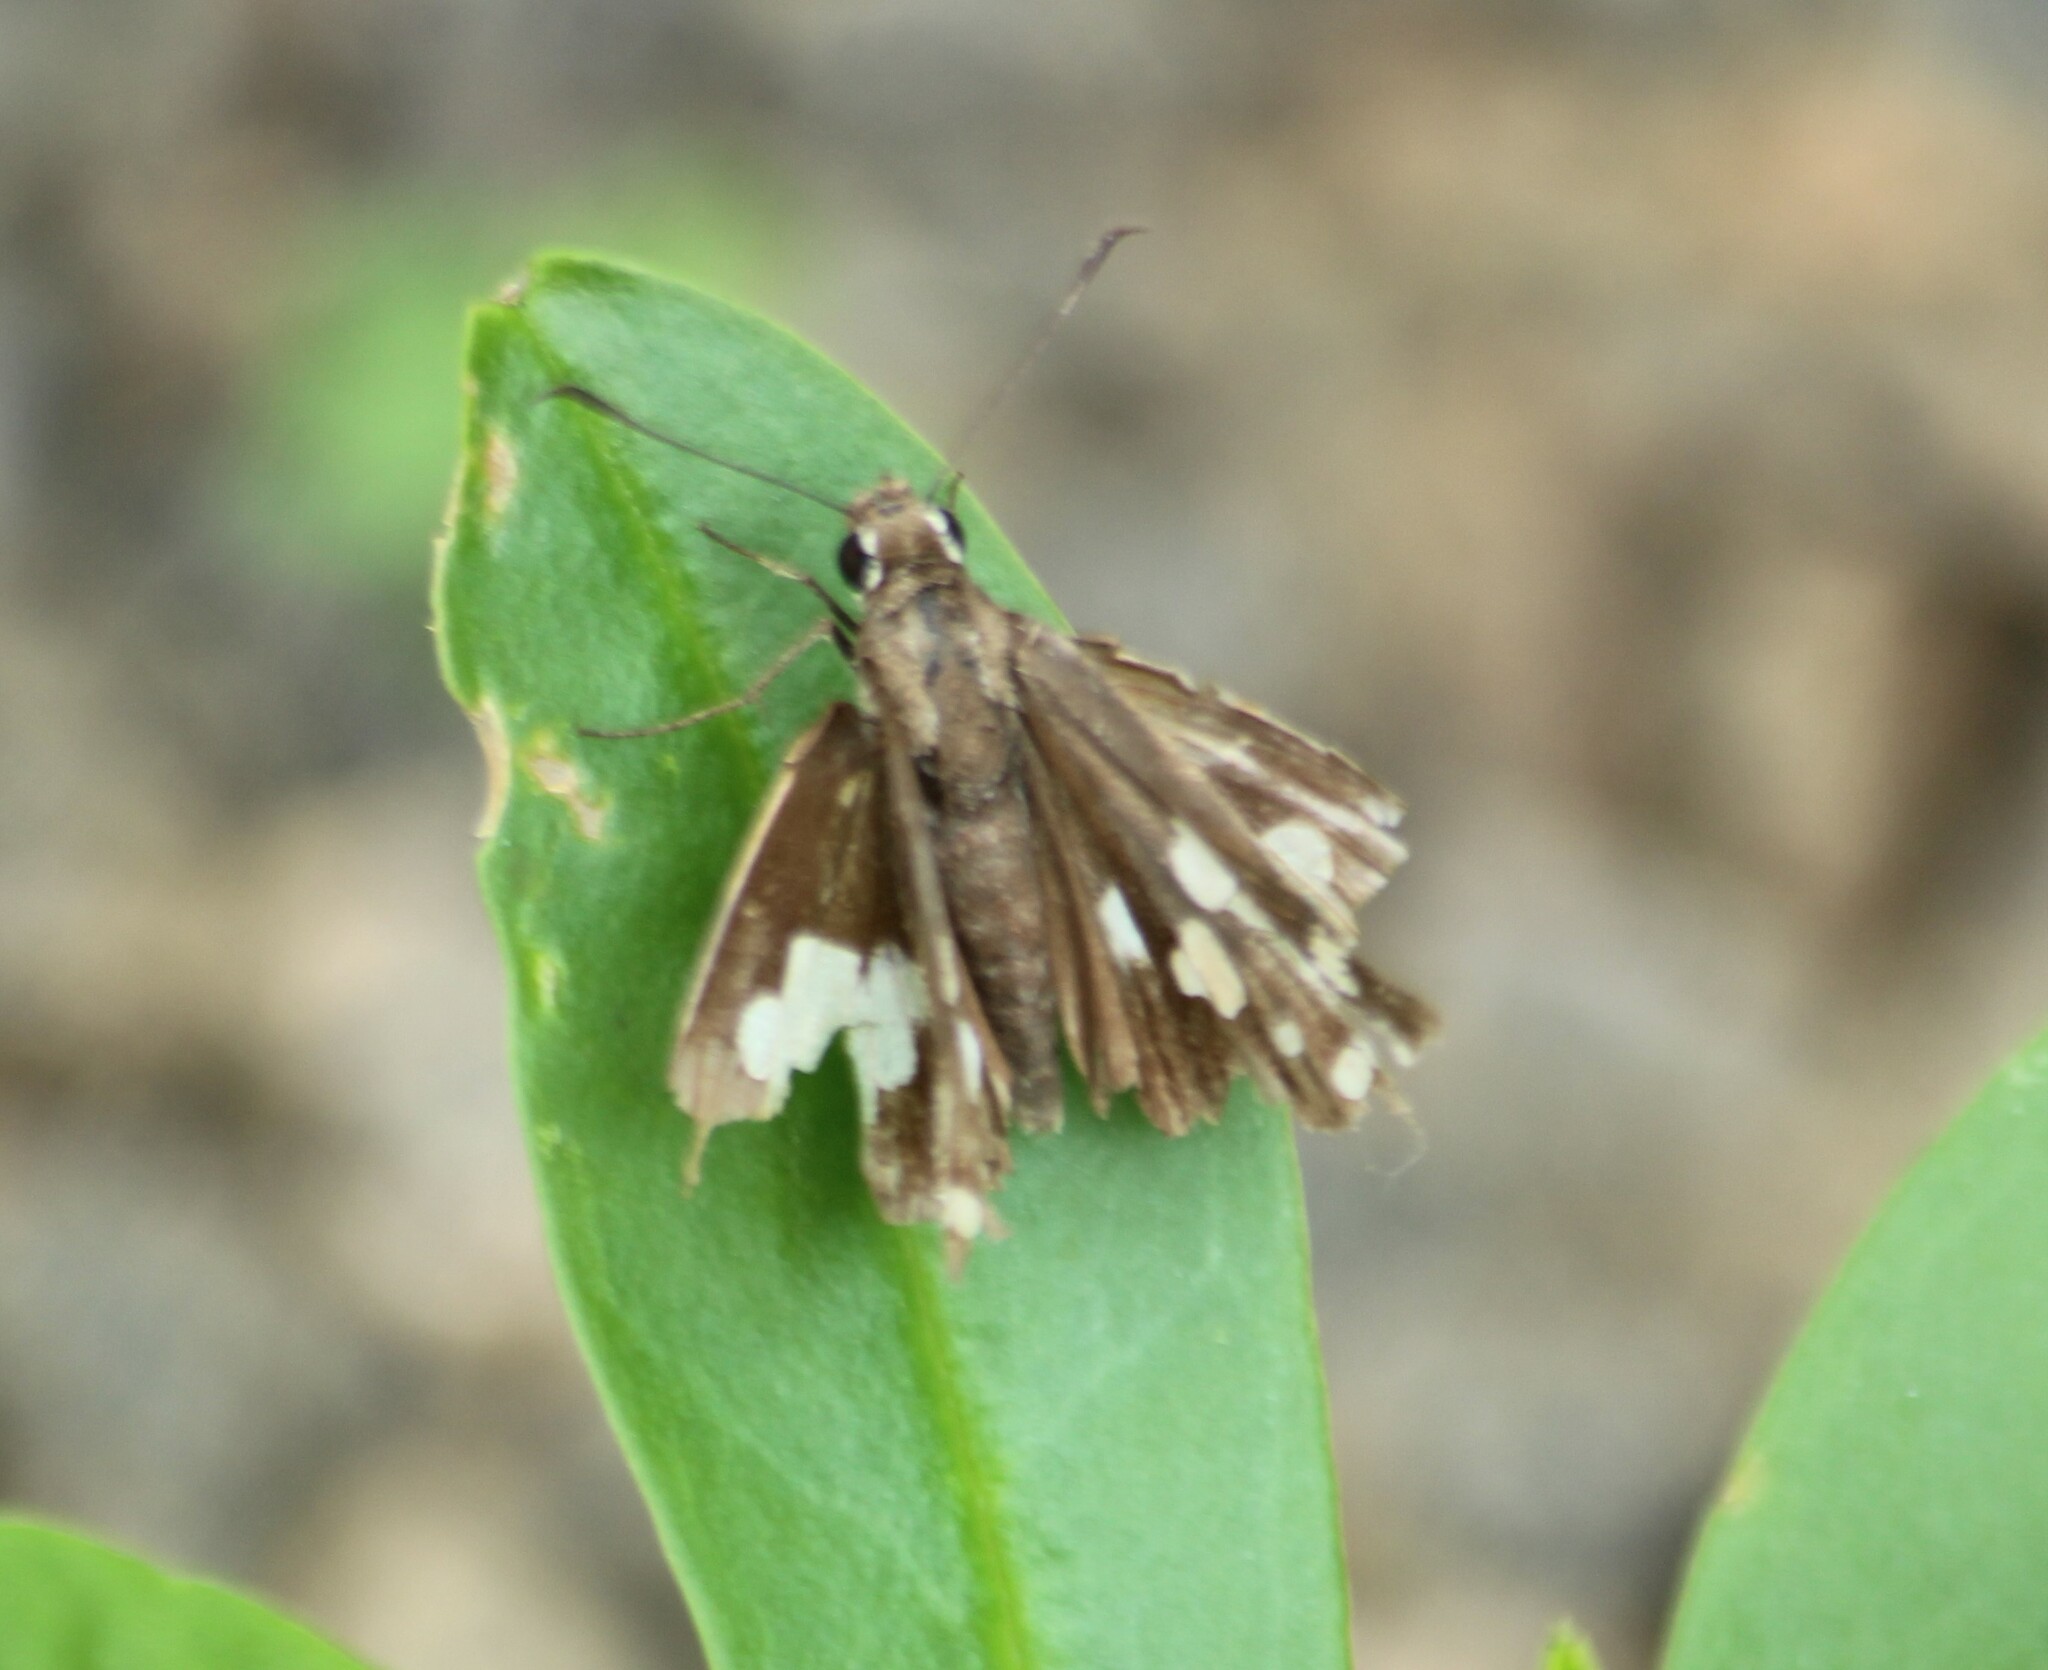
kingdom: Animalia
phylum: Arthropoda
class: Insecta
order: Lepidoptera
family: Hesperiidae
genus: Udaspes
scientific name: Udaspes folus
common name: Grass demon
